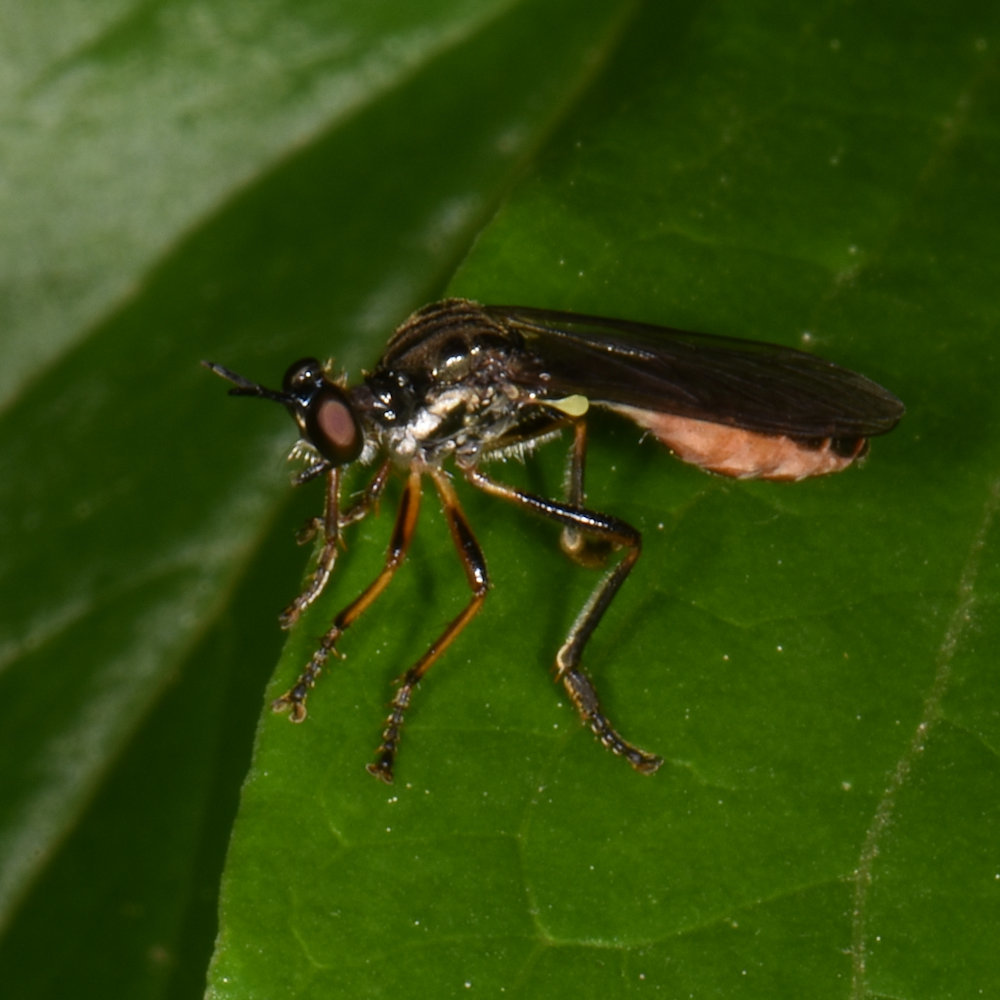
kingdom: Animalia
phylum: Arthropoda
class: Insecta
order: Diptera
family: Asilidae
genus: Dioctria
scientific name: Dioctria hyalipennis
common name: Stripe-legged robberfly
